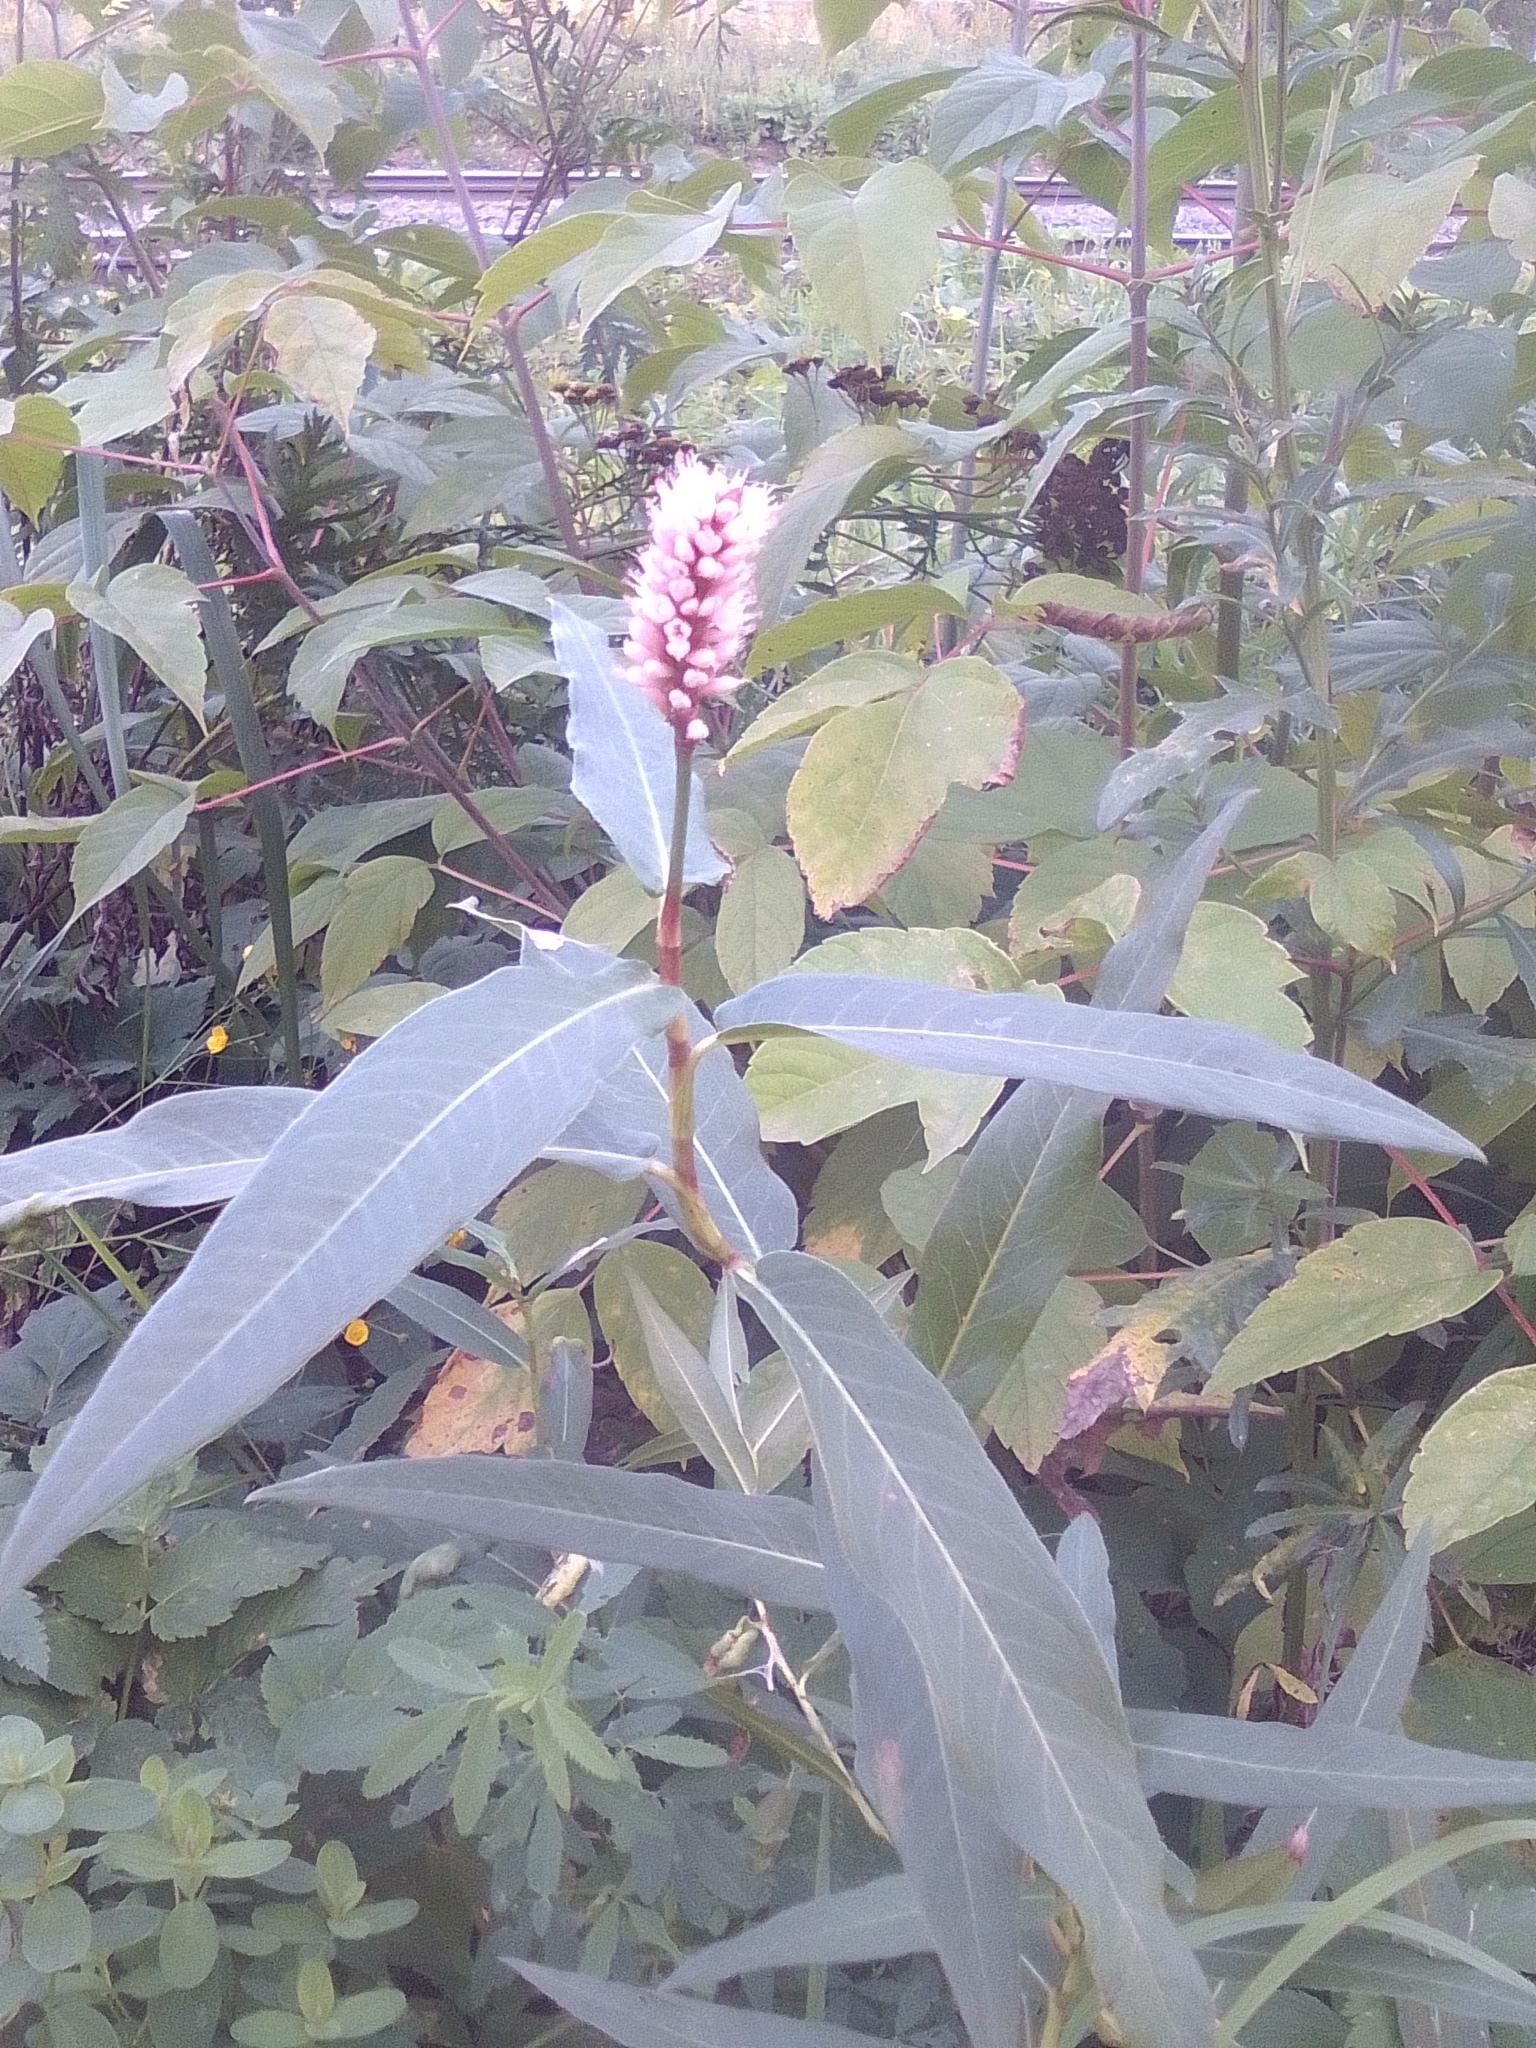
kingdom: Plantae
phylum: Tracheophyta
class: Magnoliopsida
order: Caryophyllales
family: Polygonaceae
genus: Persicaria
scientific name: Persicaria amphibia
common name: Amphibious bistort
